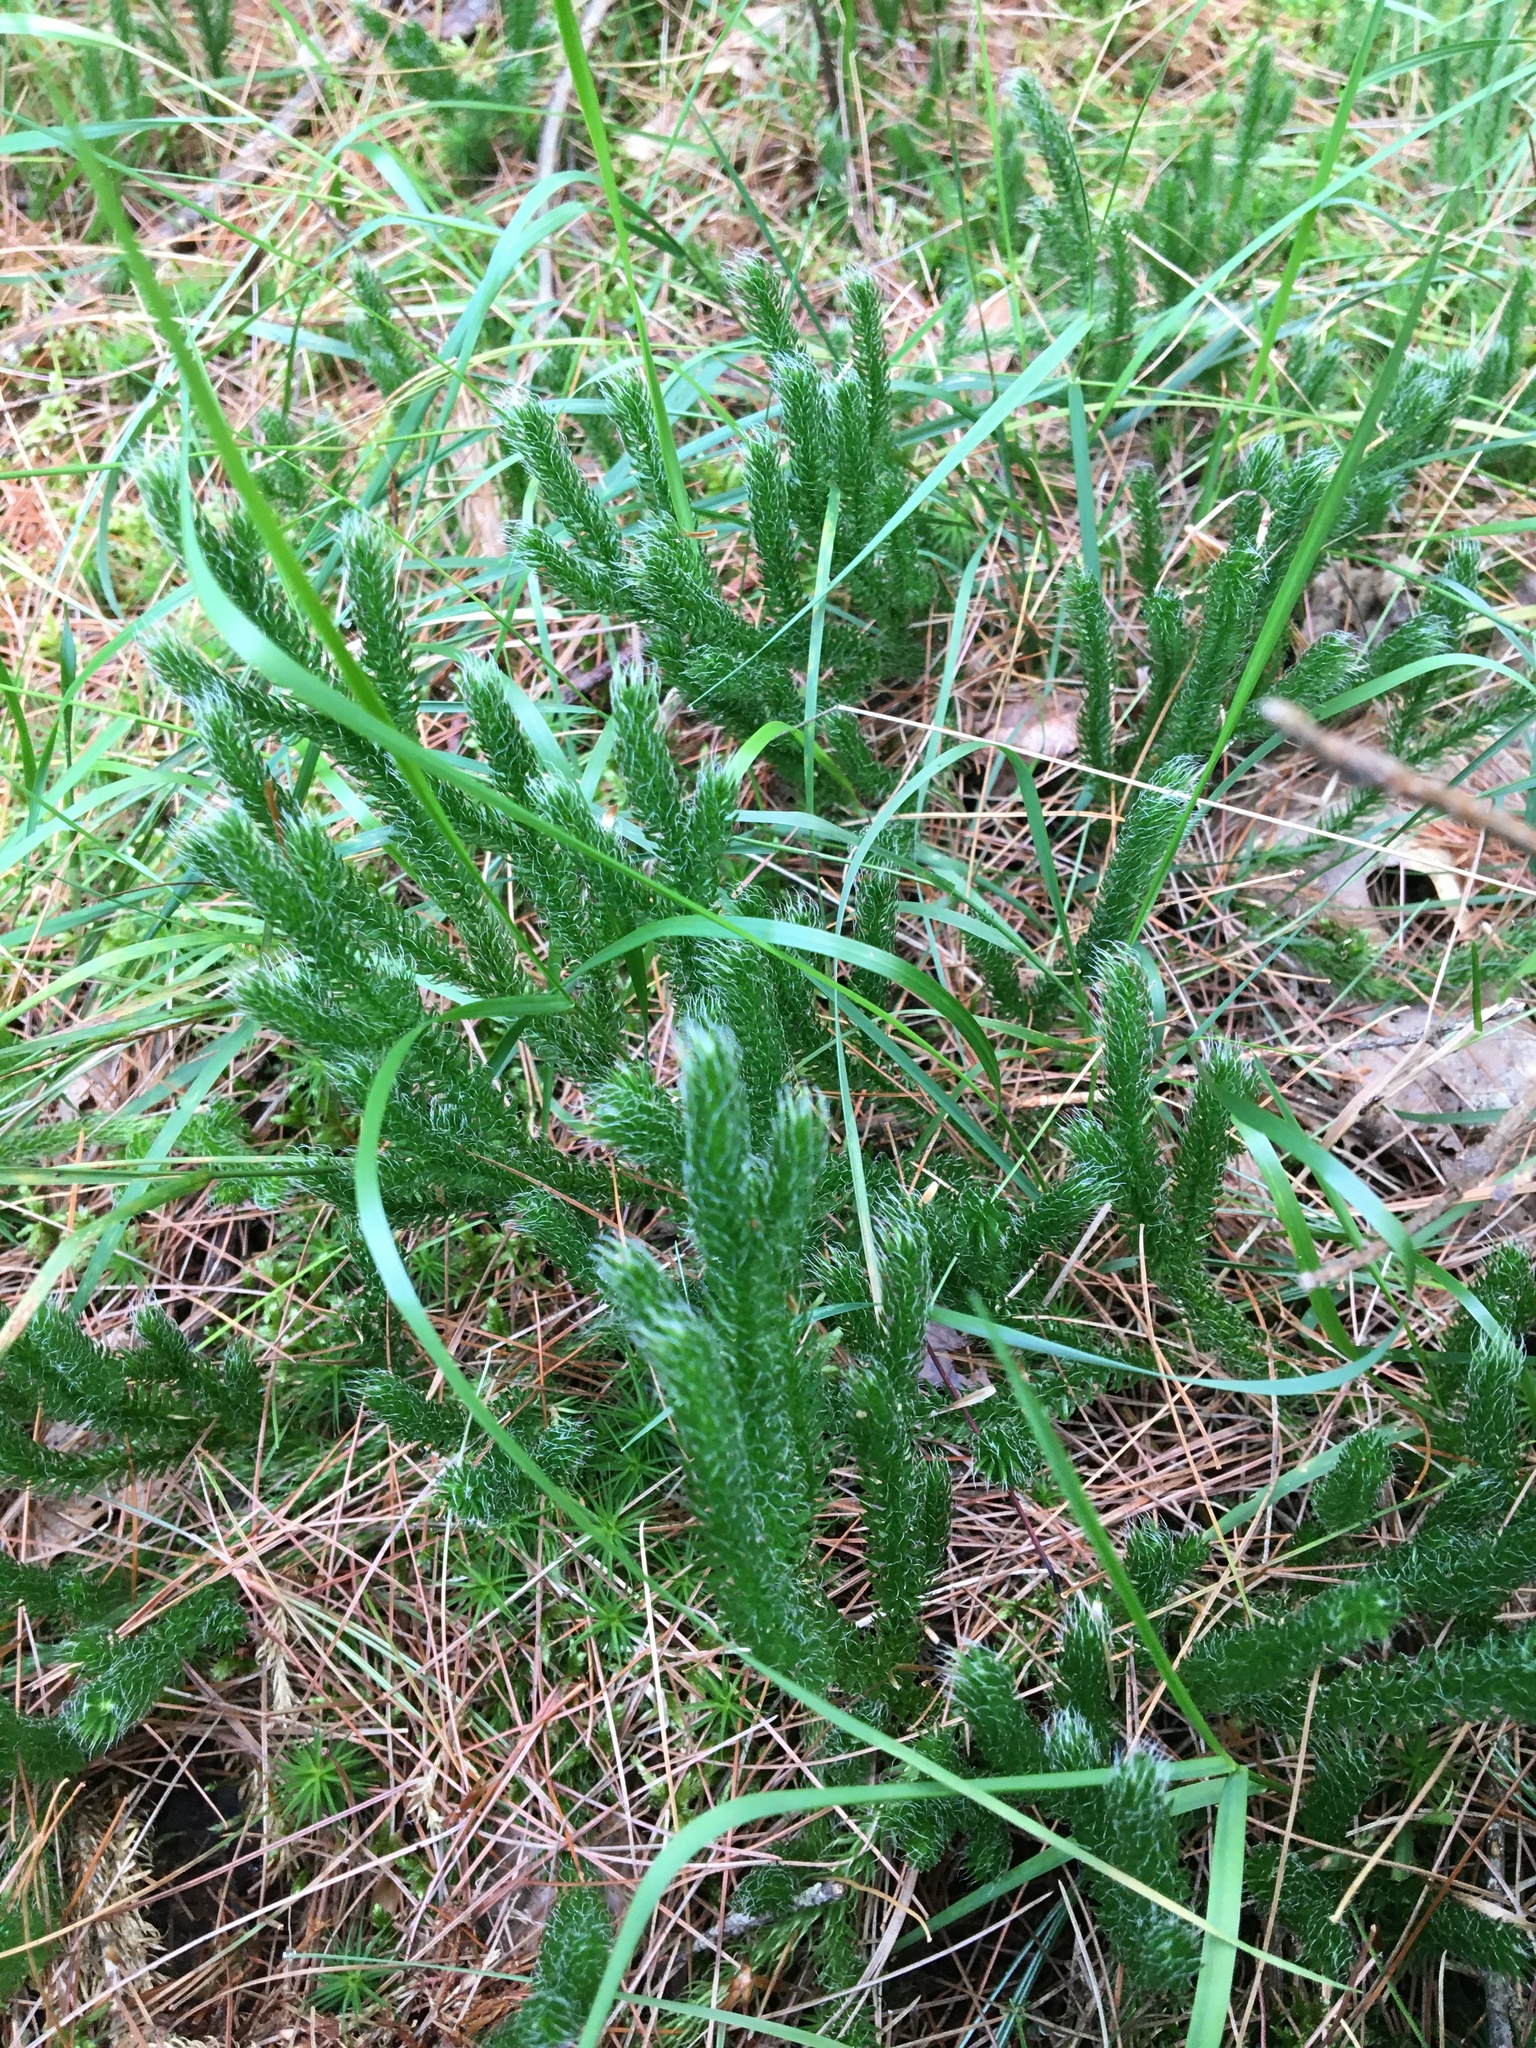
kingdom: Plantae
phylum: Tracheophyta
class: Lycopodiopsida
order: Lycopodiales
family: Lycopodiaceae
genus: Lycopodium
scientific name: Lycopodium clavatum
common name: Stag's-horn clubmoss
